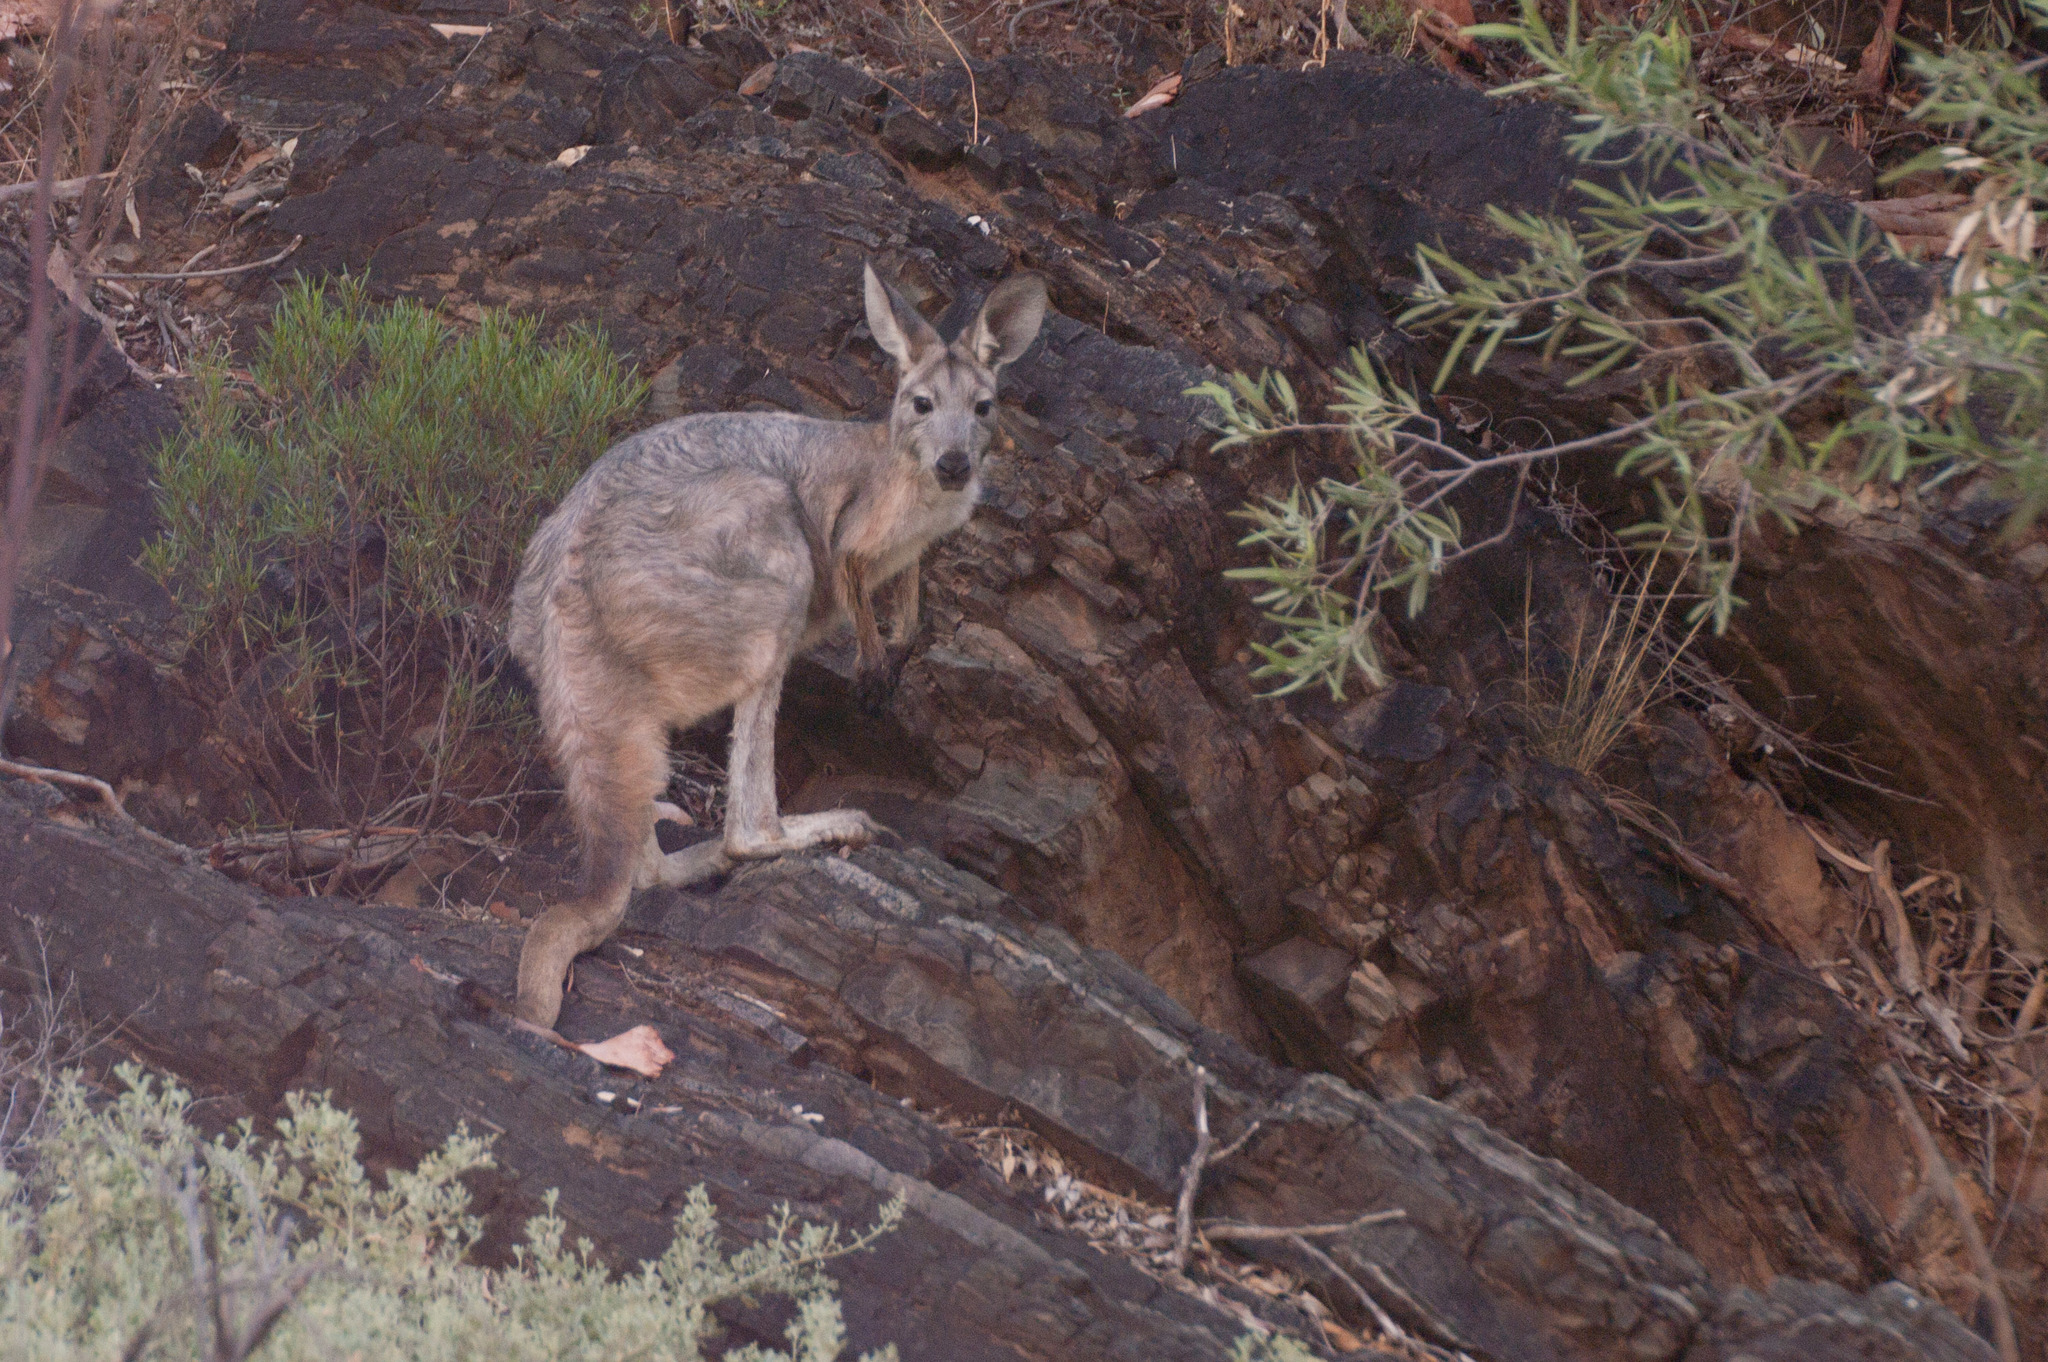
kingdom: Animalia
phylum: Chordata
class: Mammalia
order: Diprotodontia
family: Macropodidae
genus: Macropus
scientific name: Macropus robustus
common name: Eastern wallaroo
